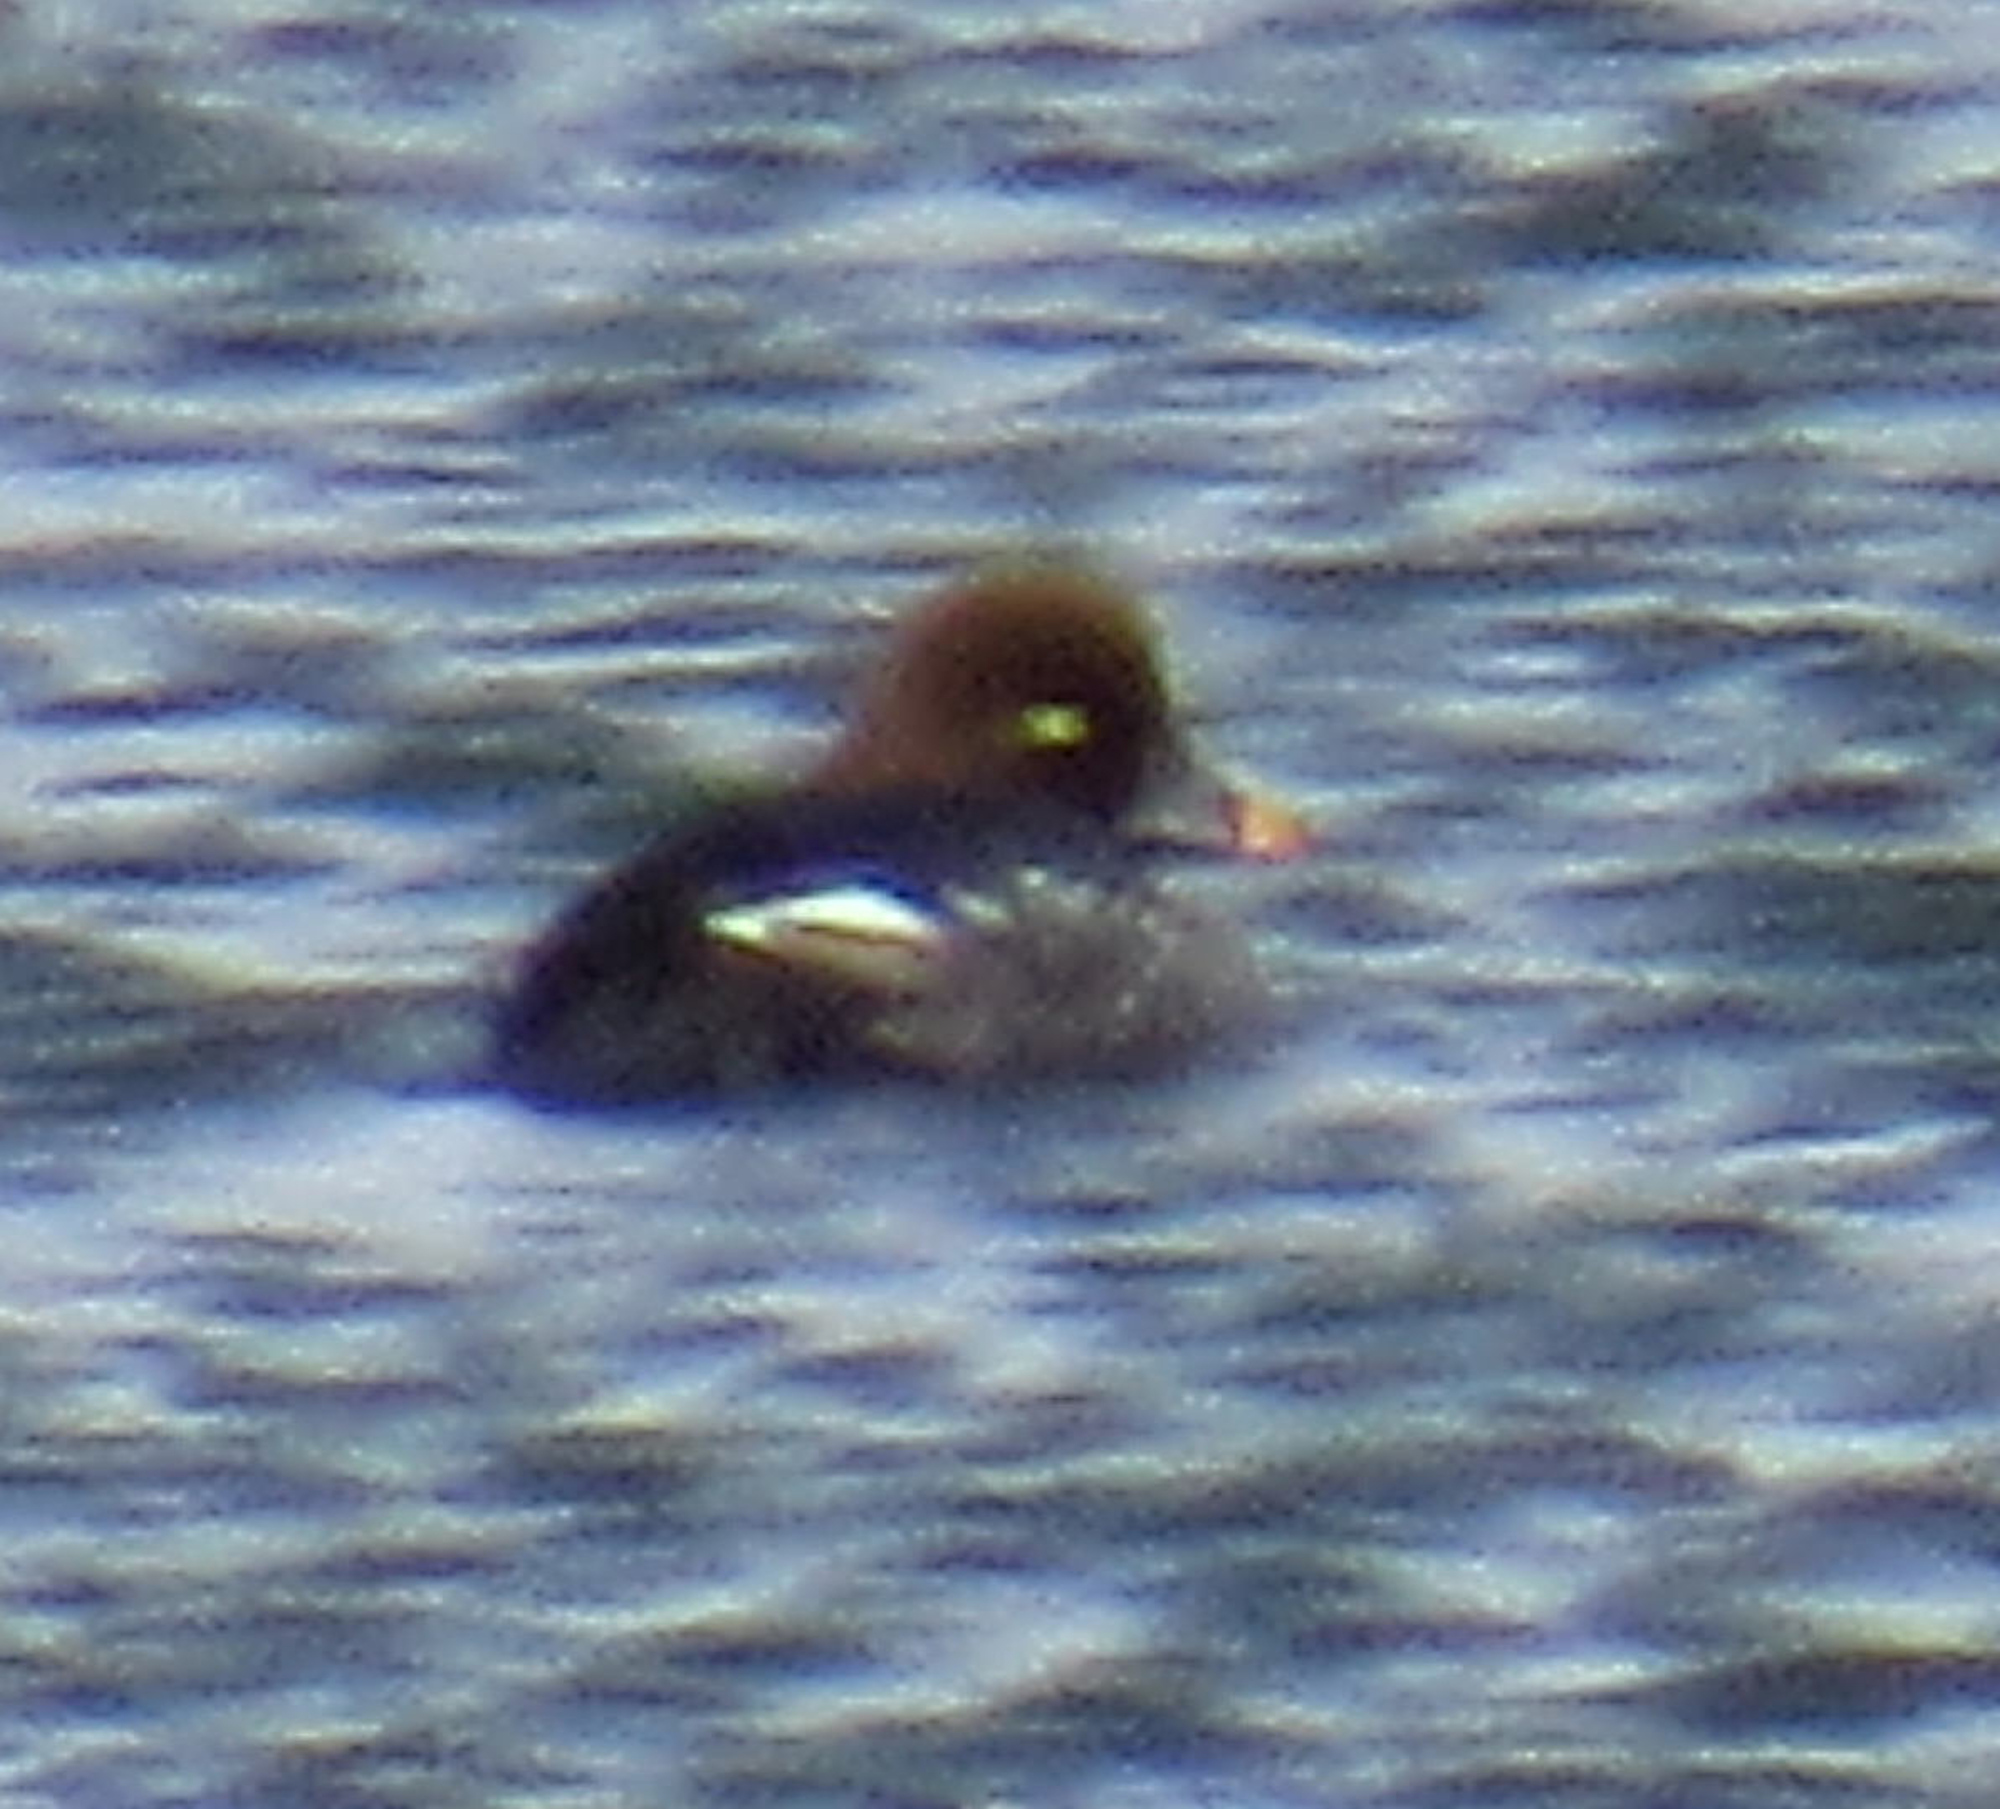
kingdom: Animalia
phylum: Chordata
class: Aves
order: Anseriformes
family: Anatidae
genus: Bucephala
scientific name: Bucephala clangula
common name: Common goldeneye
